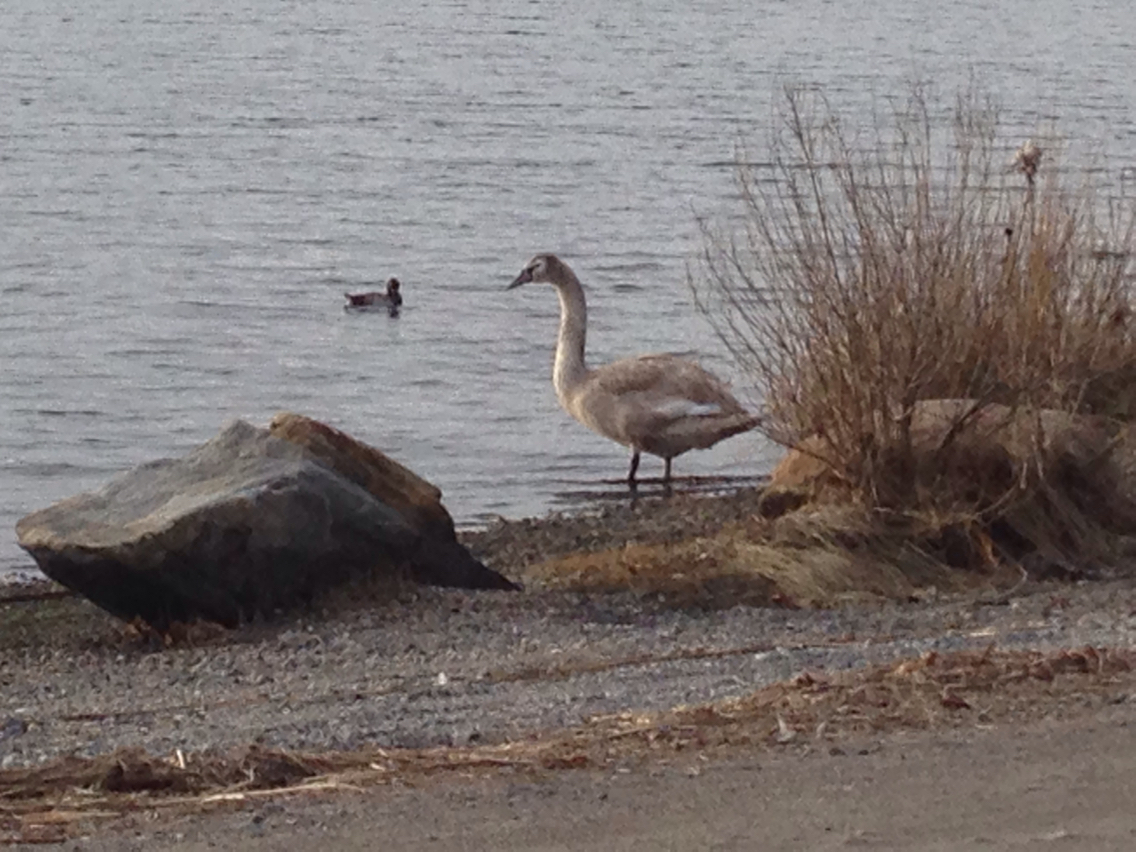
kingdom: Animalia
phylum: Chordata
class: Aves
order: Anseriformes
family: Anatidae
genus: Cygnus
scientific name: Cygnus olor
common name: Mute swan
